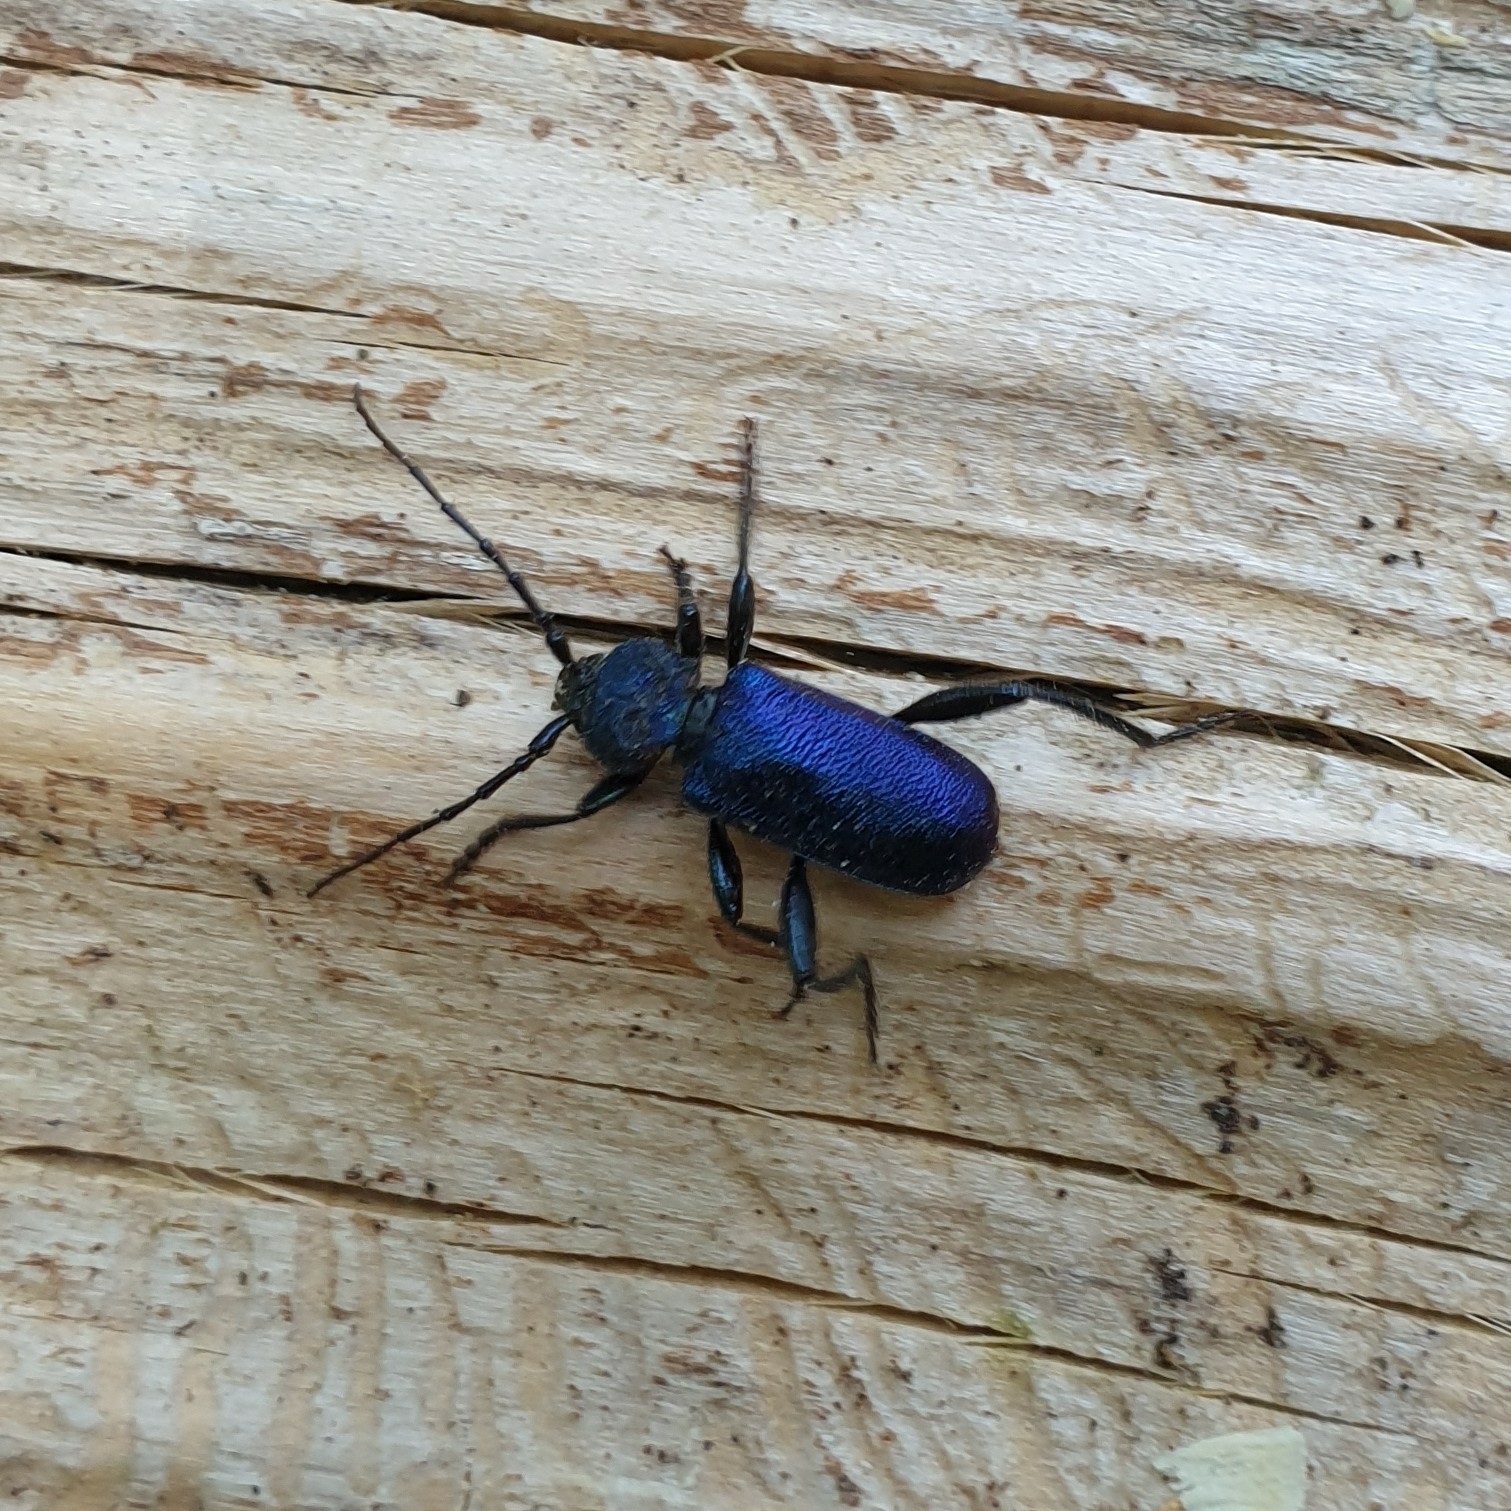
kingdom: Animalia
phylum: Arthropoda
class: Insecta
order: Coleoptera
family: Cerambycidae
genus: Callidium
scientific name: Callidium violaceum
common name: Violet tanbark beetle
